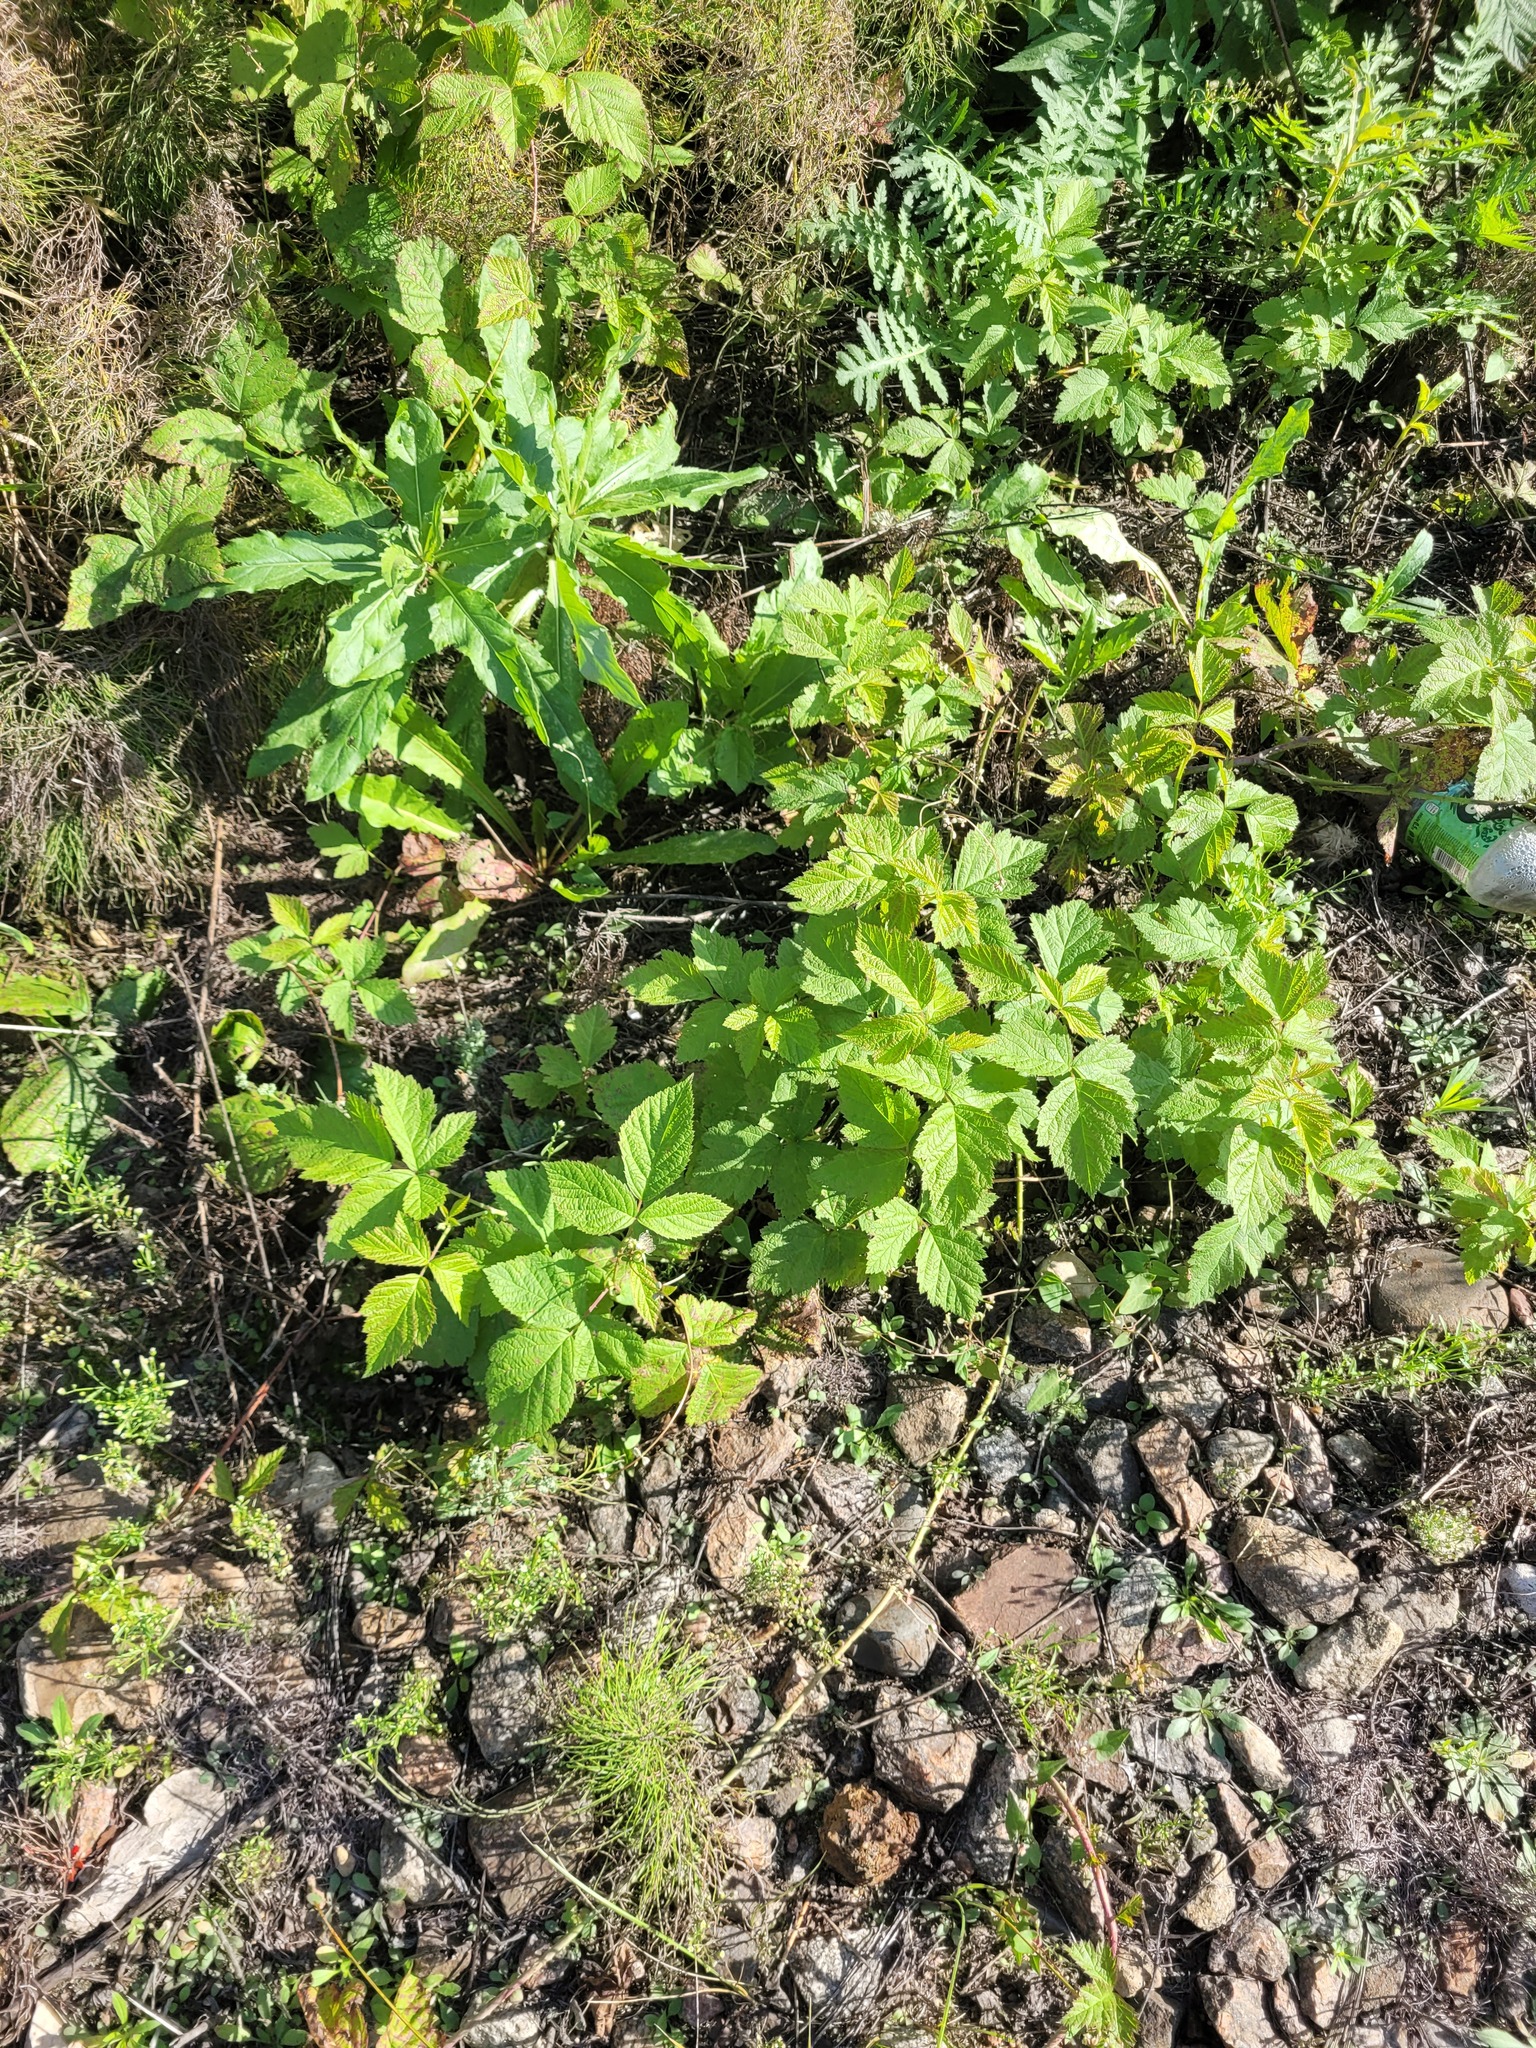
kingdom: Plantae
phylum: Tracheophyta
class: Magnoliopsida
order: Rosales
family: Rosaceae
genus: Rubus
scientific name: Rubus caesius
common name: Dewberry
